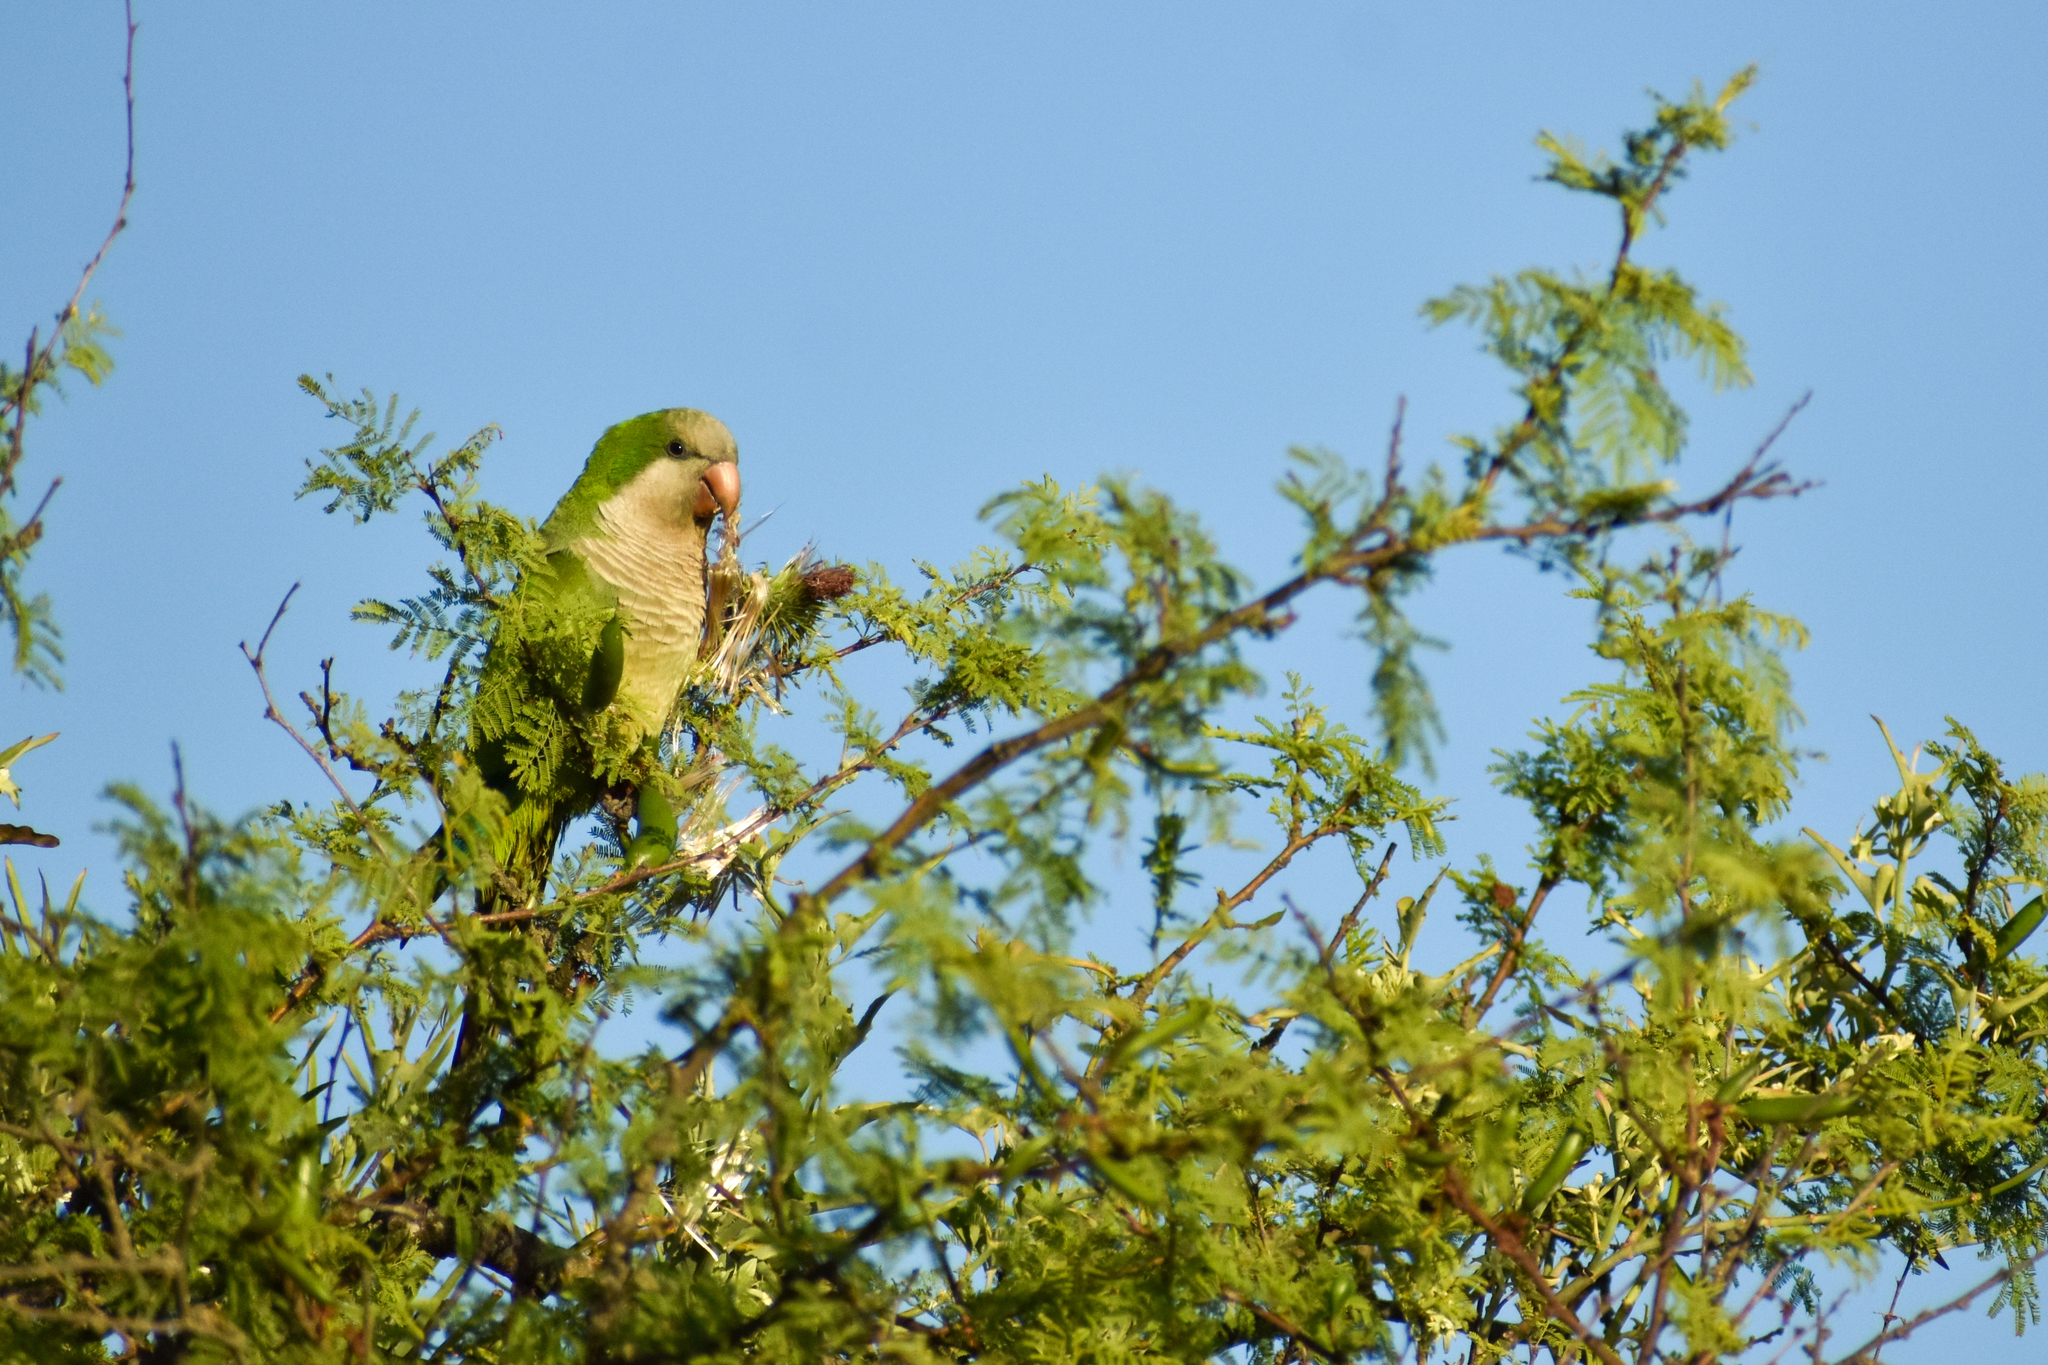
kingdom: Animalia
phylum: Chordata
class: Aves
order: Psittaciformes
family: Psittacidae
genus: Myiopsitta
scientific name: Myiopsitta monachus
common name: Monk parakeet
